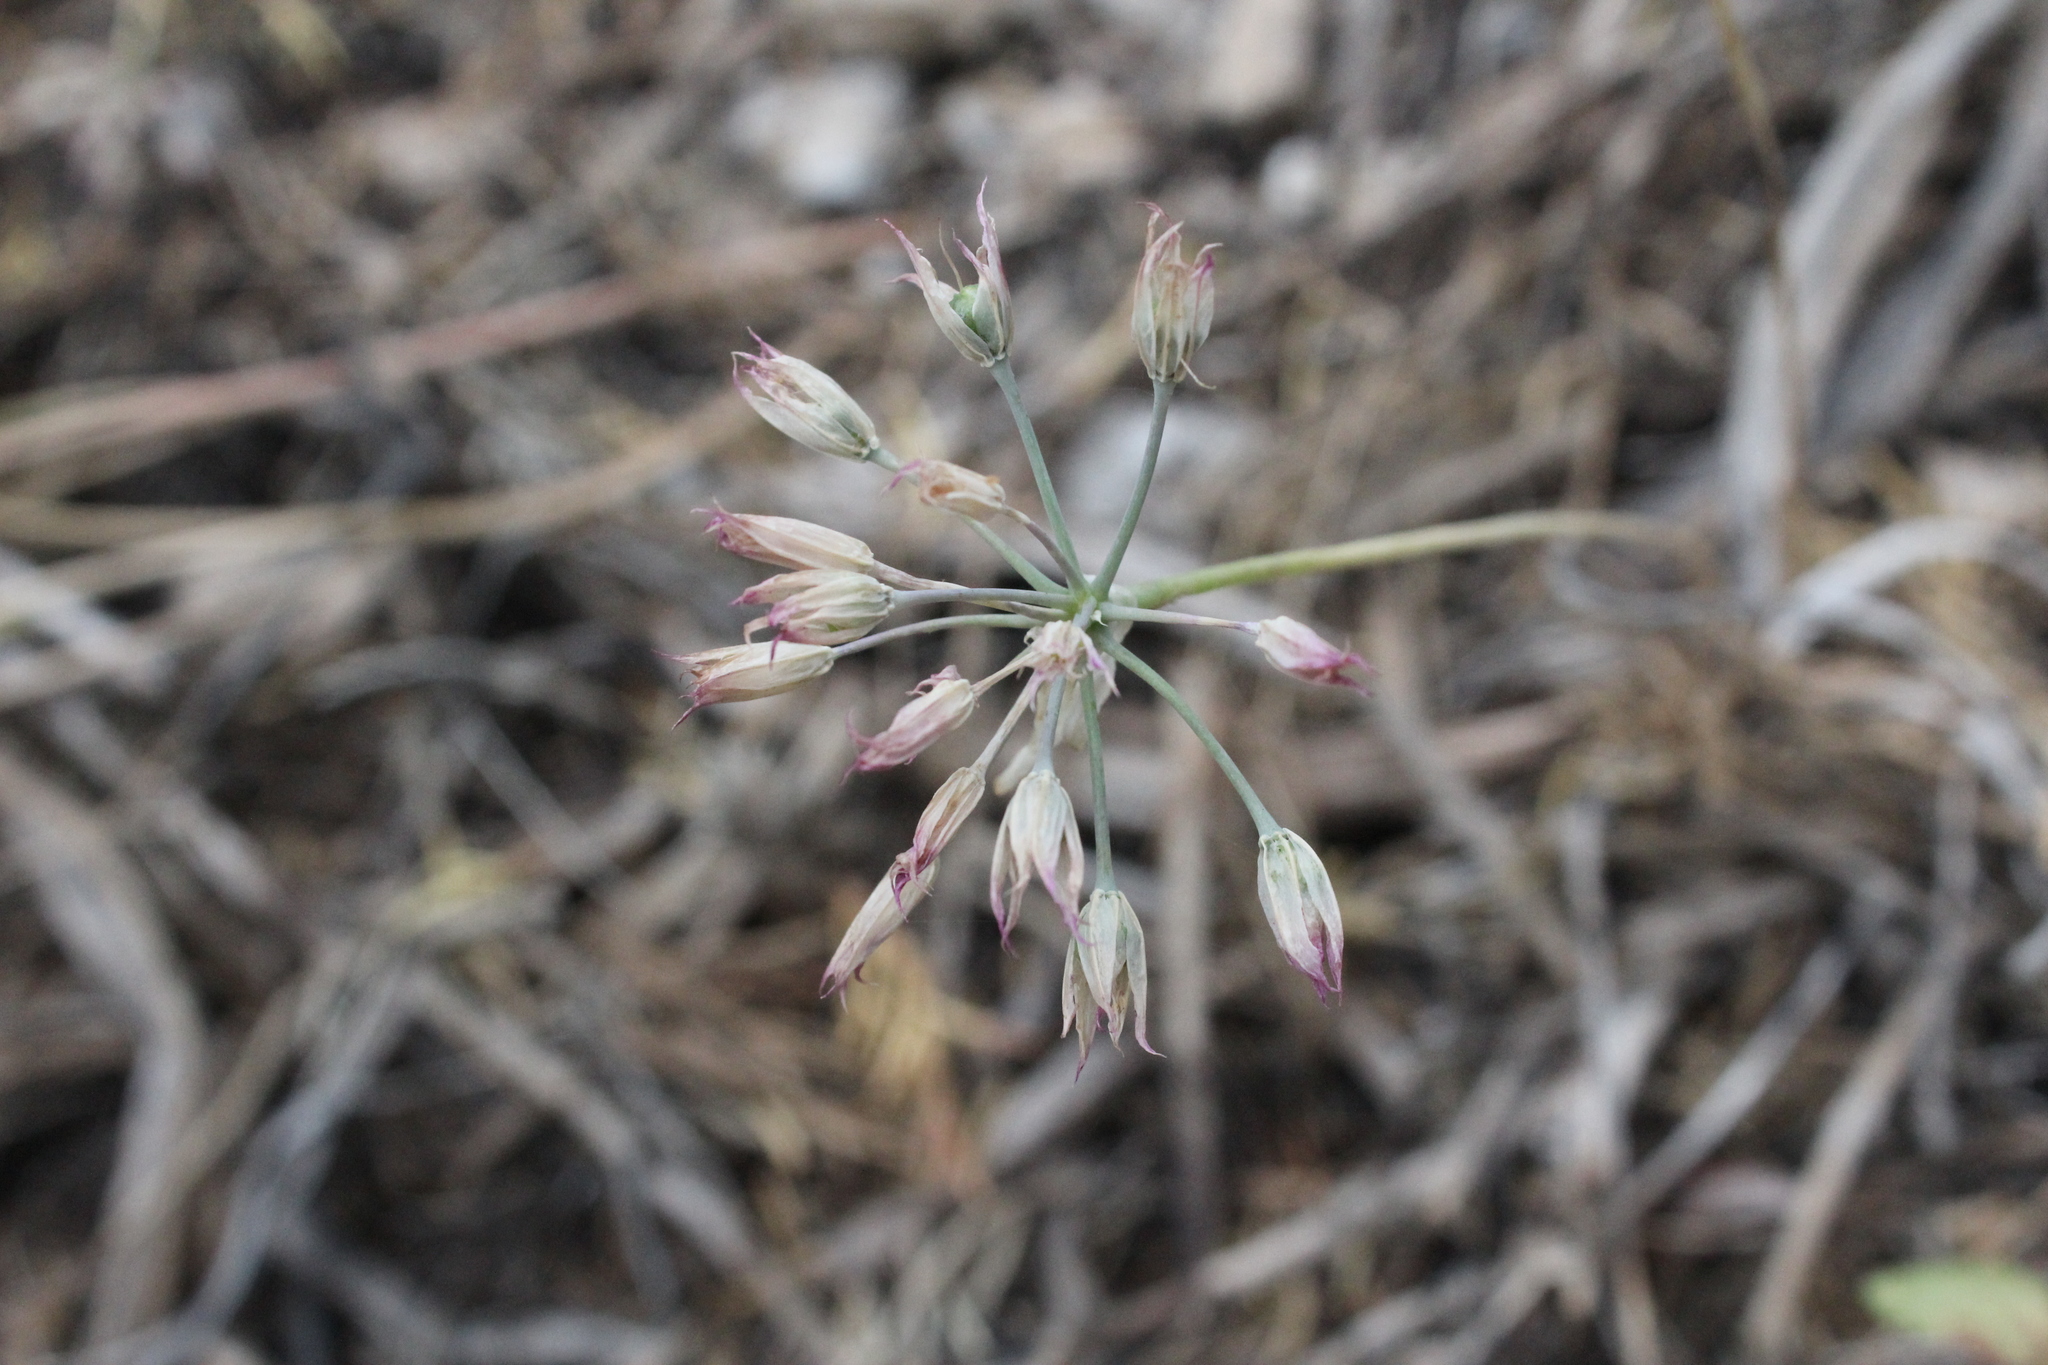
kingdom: Plantae
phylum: Tracheophyta
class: Liliopsida
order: Asparagales
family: Amaryllidaceae
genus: Allium
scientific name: Allium acuminatum
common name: Hooker's onion
